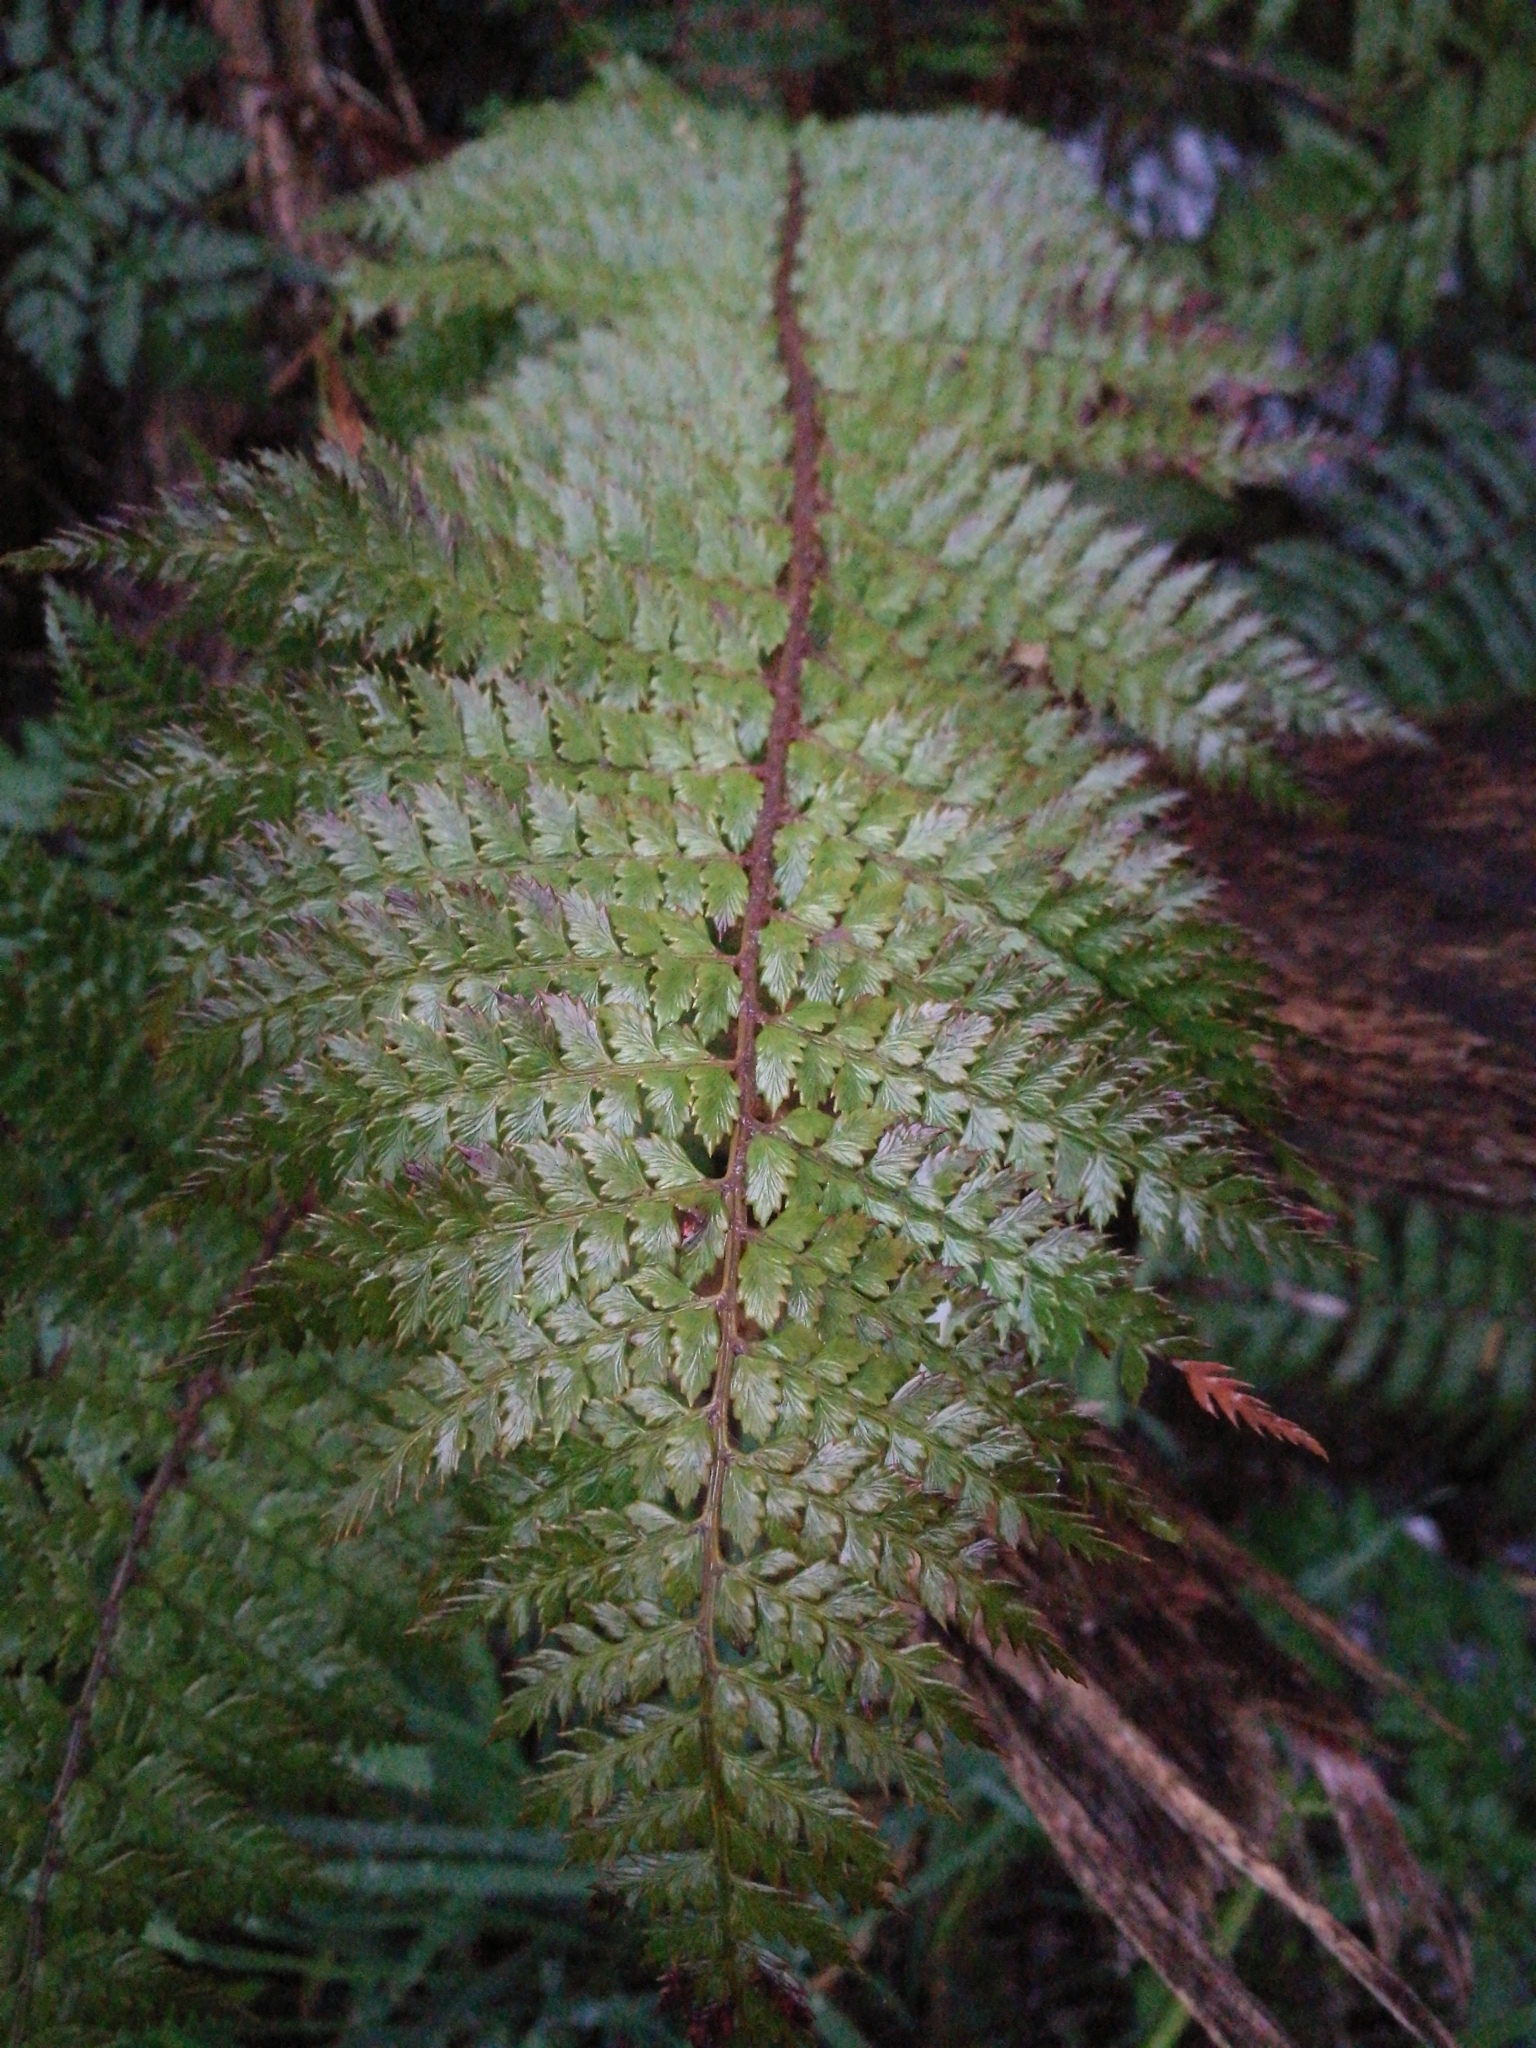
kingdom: Plantae
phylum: Tracheophyta
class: Polypodiopsida
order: Polypodiales
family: Dryopteridaceae
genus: Polystichum
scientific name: Polystichum vestitum
